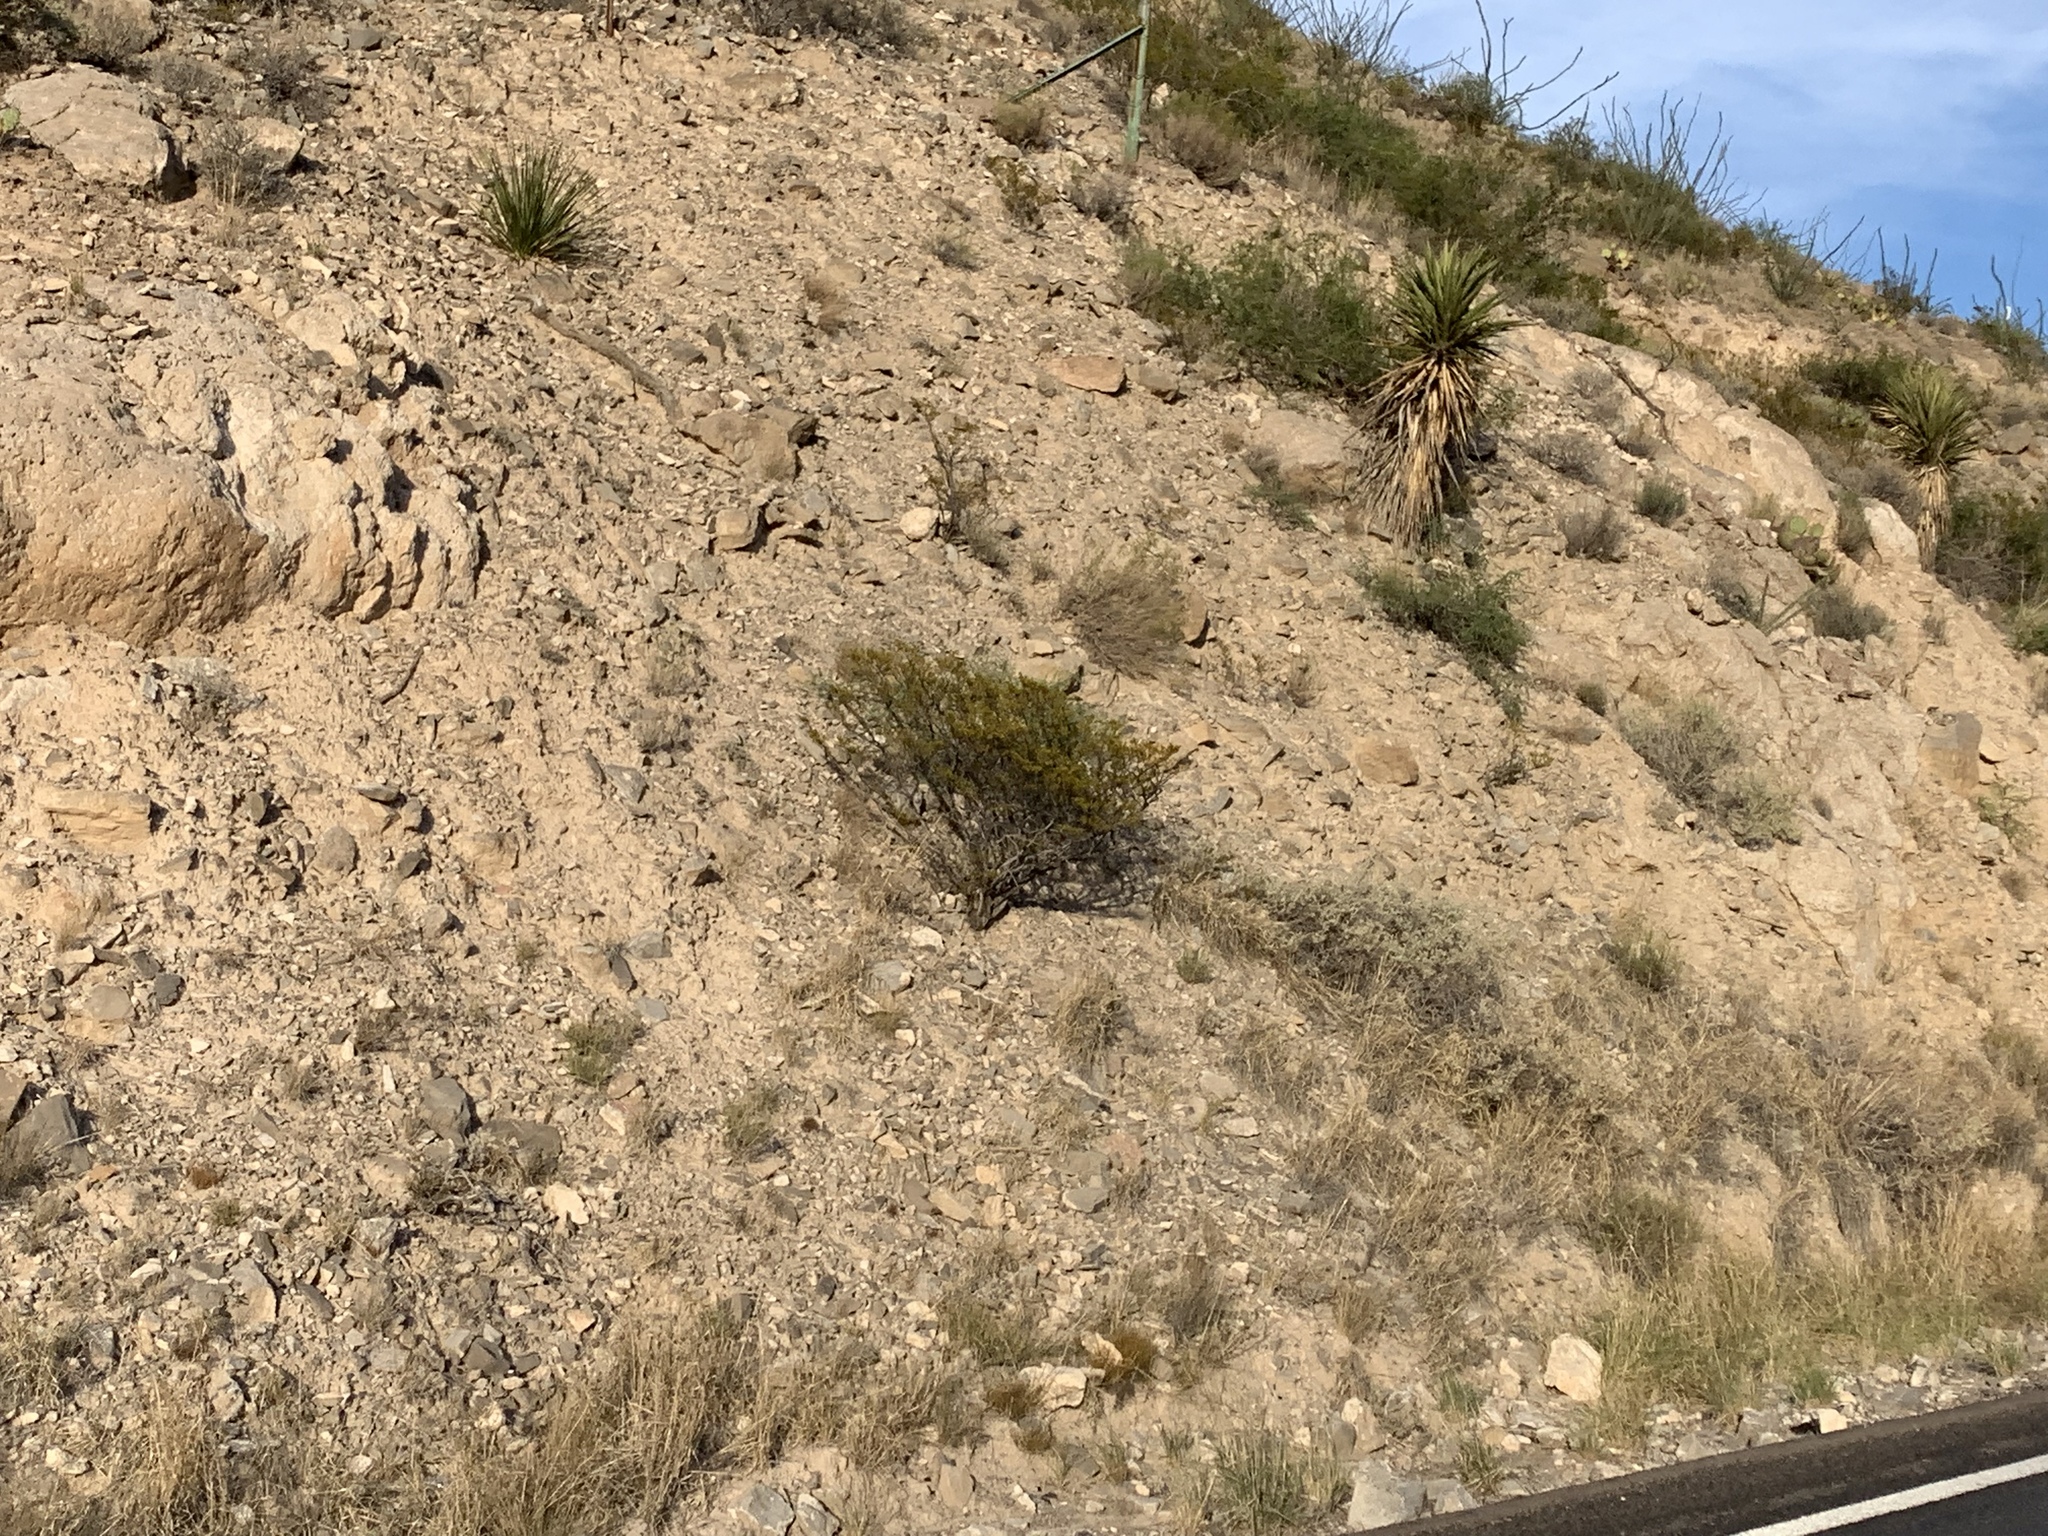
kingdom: Plantae
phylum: Tracheophyta
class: Magnoliopsida
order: Zygophyllales
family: Zygophyllaceae
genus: Larrea
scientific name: Larrea tridentata
